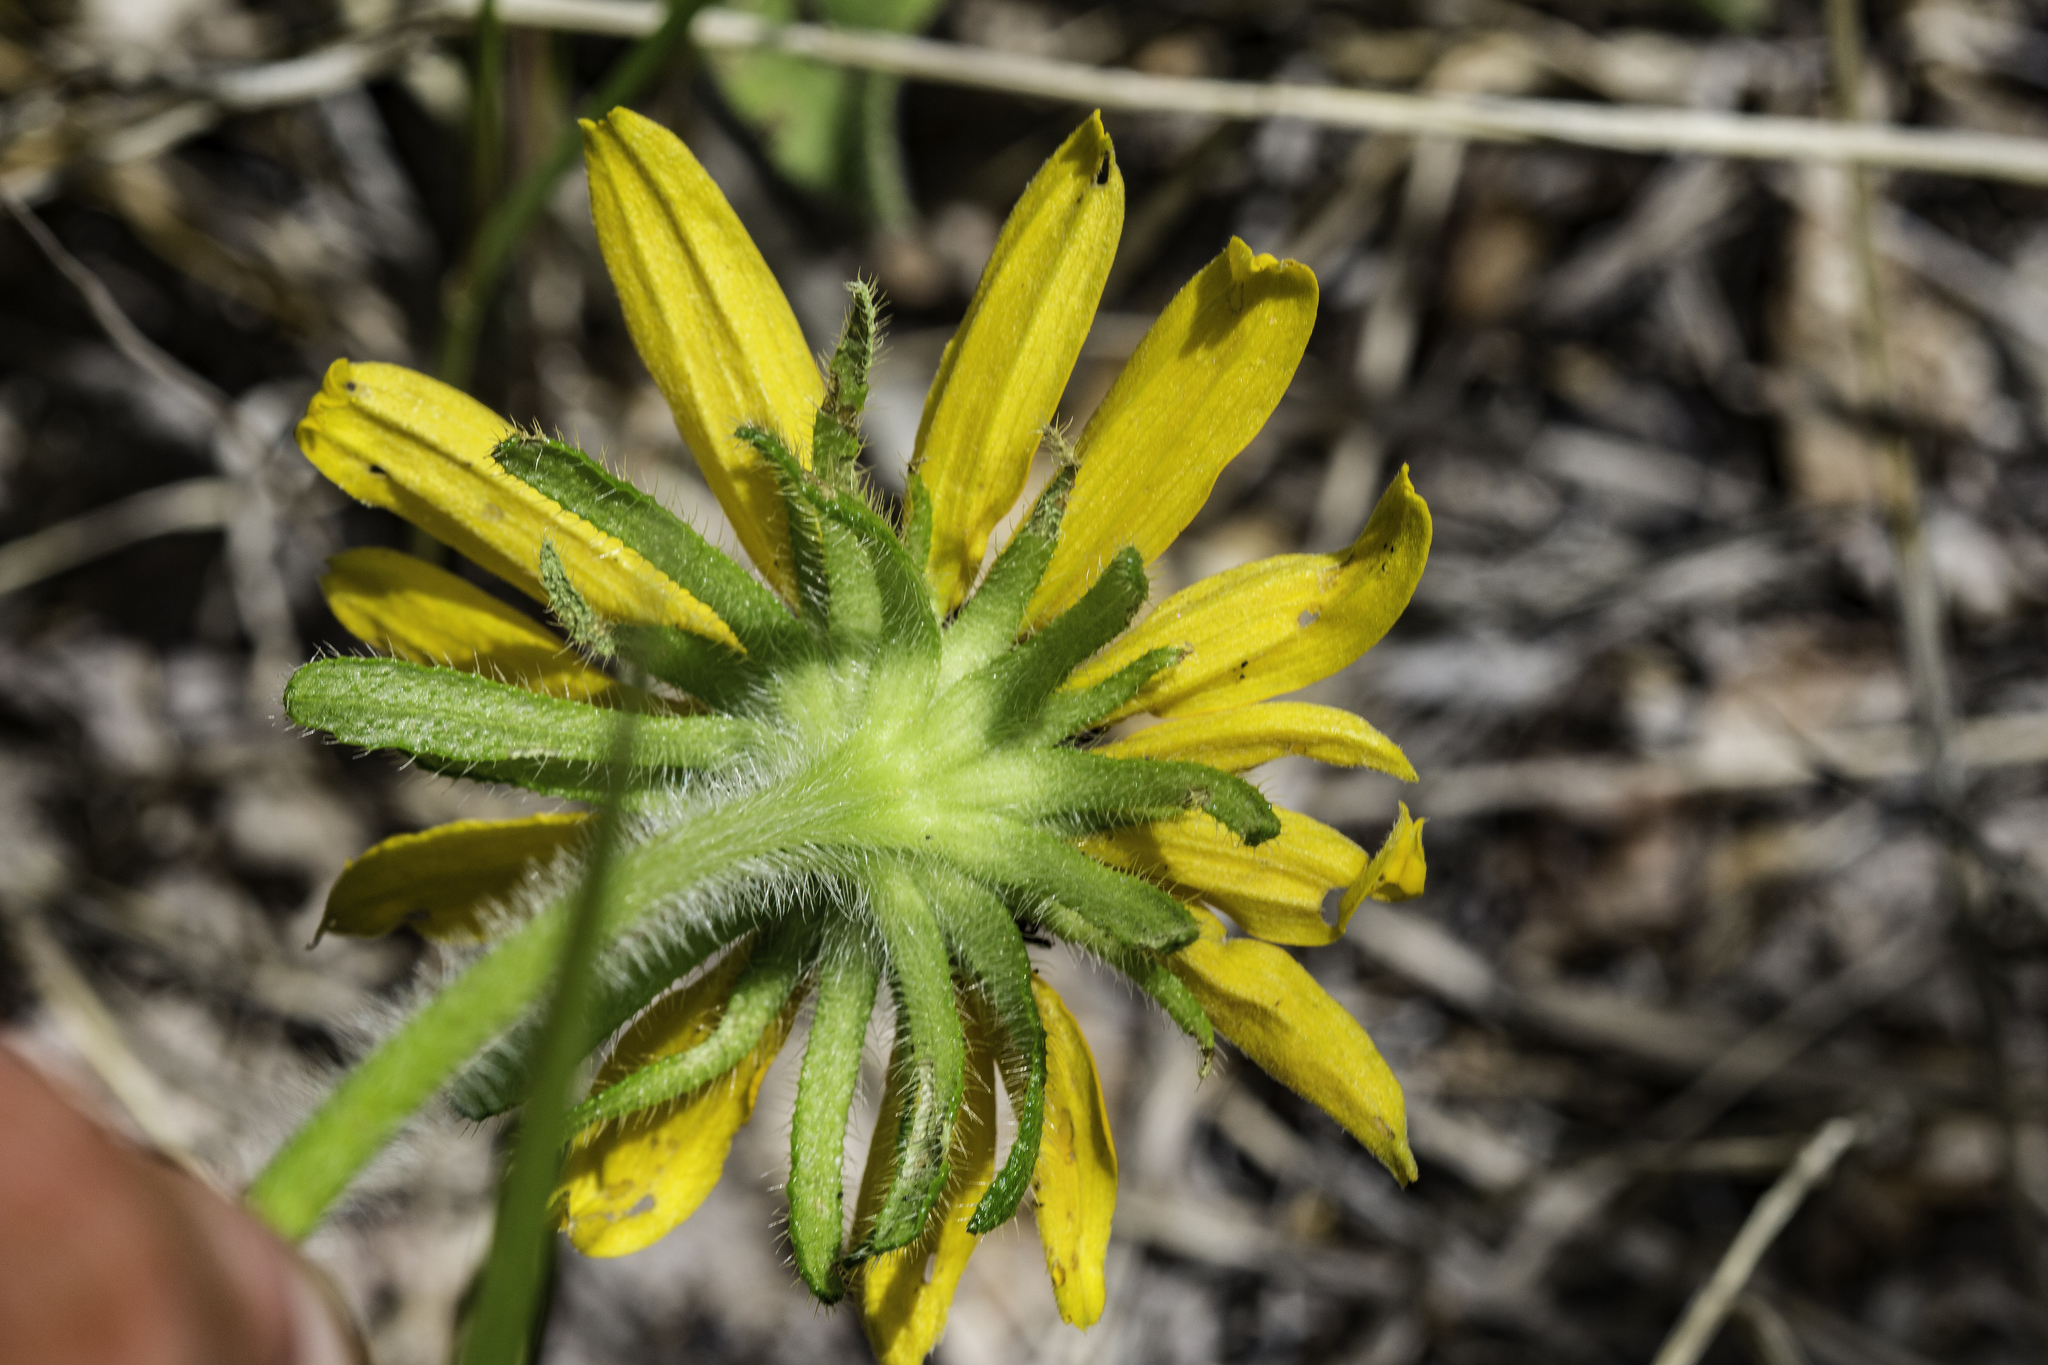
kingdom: Plantae
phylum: Tracheophyta
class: Magnoliopsida
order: Asterales
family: Asteraceae
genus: Rudbeckia
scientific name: Rudbeckia hirta
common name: Black-eyed-susan
